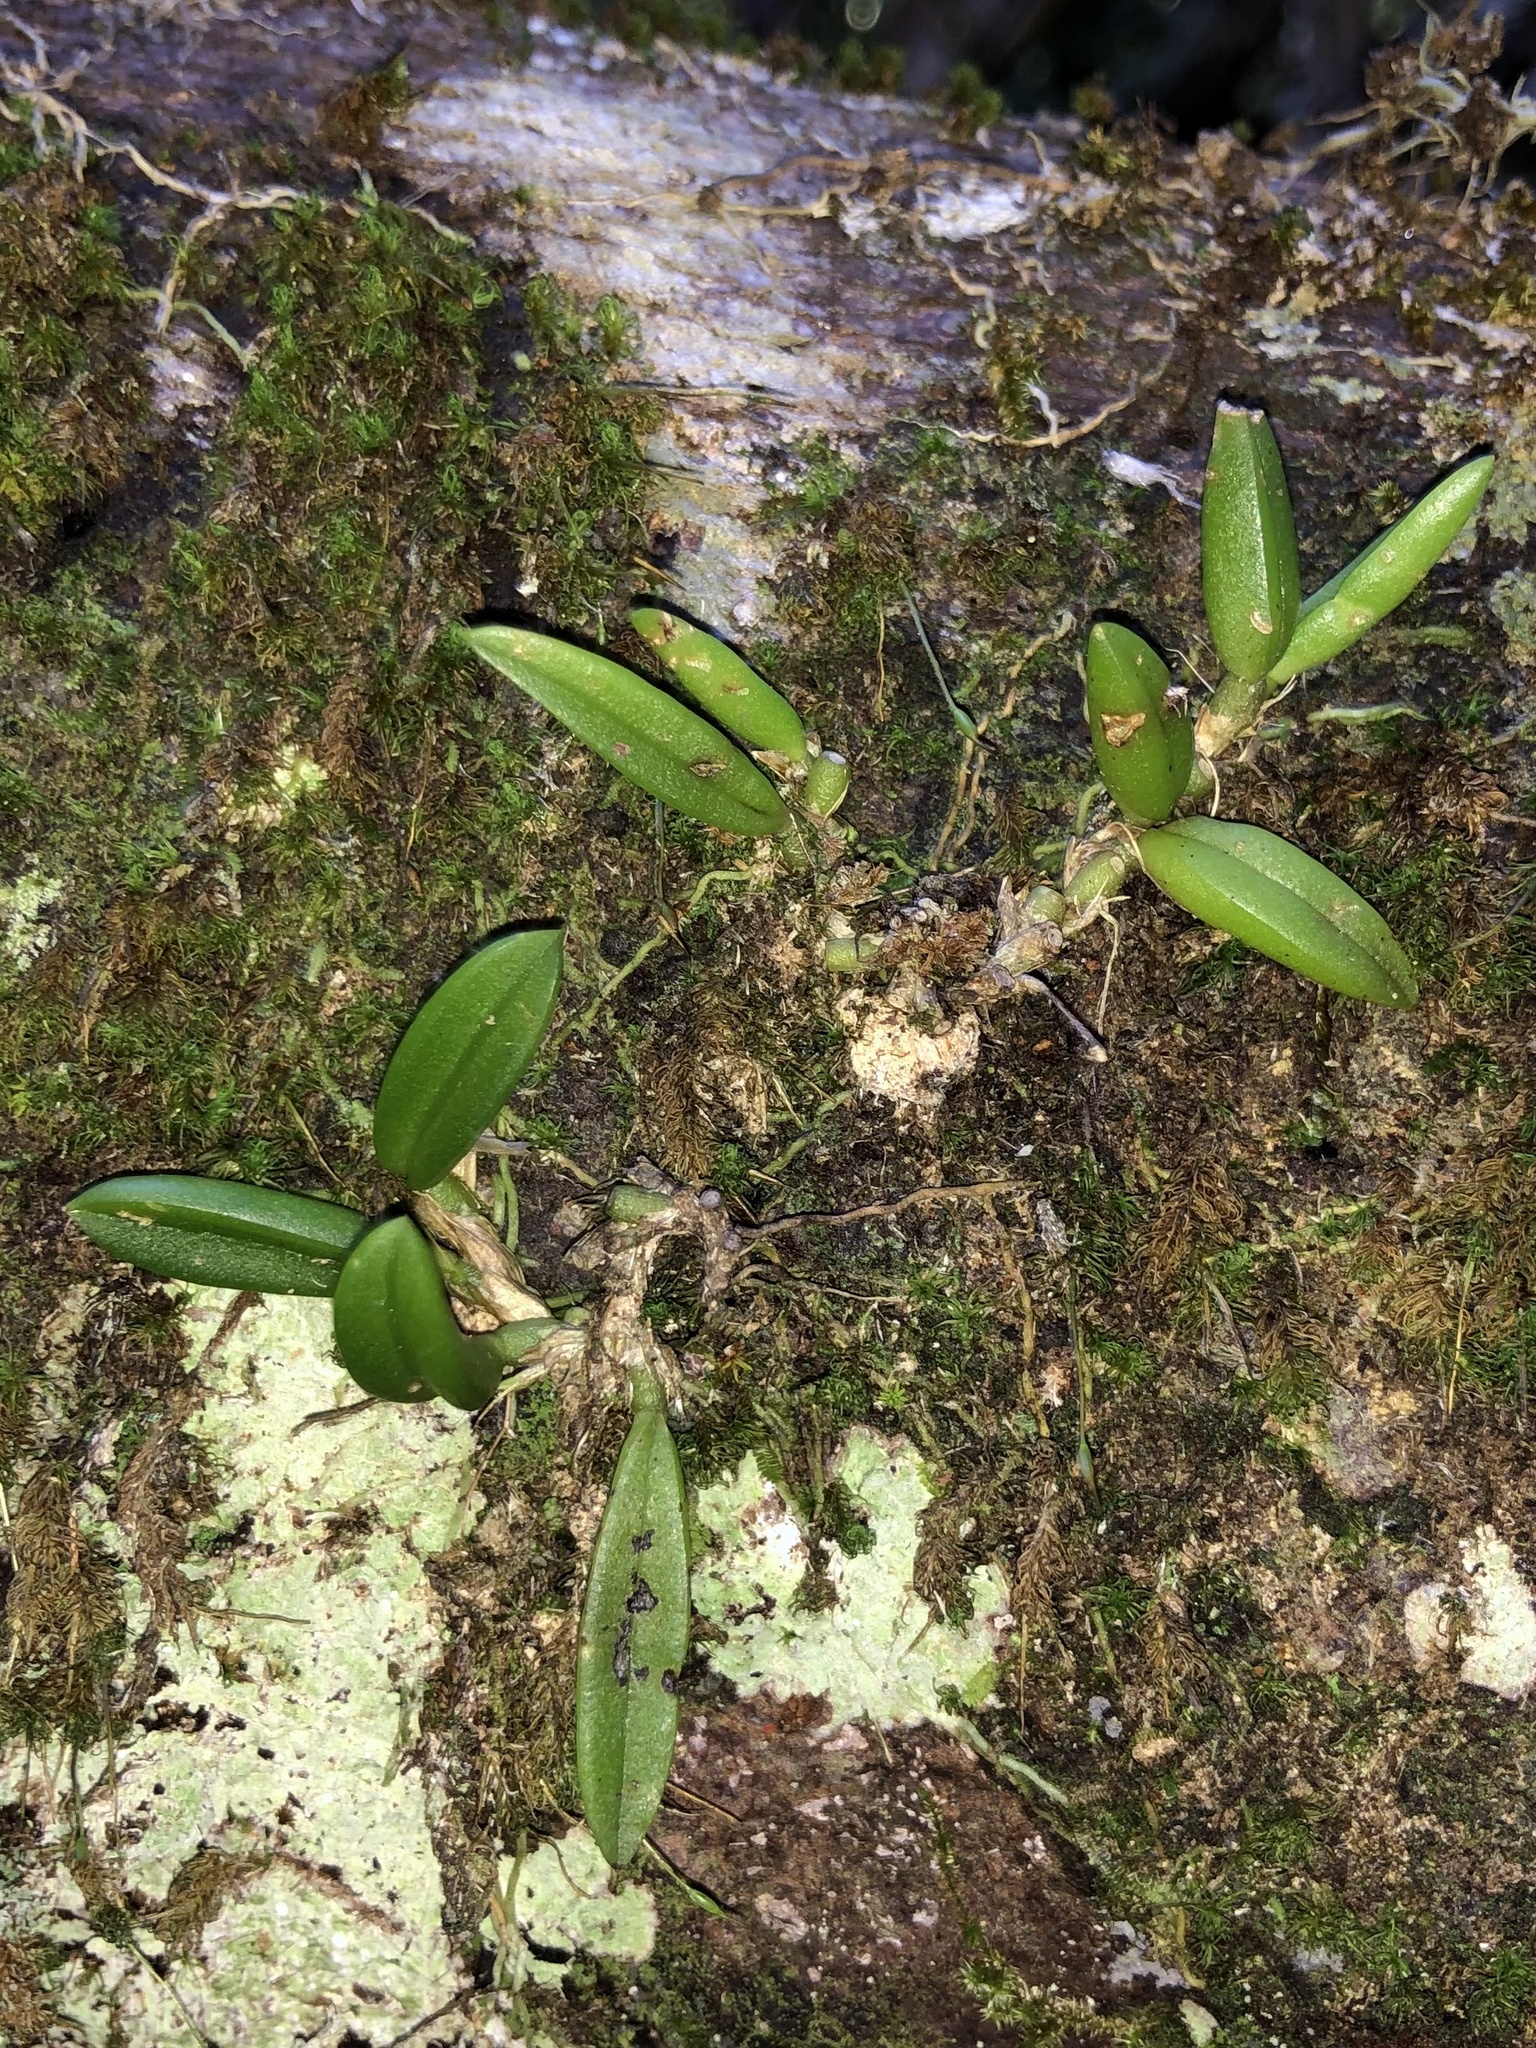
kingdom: Plantae
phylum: Tracheophyta
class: Liliopsida
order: Asparagales
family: Orchidaceae
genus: Bulbophyllum
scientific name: Bulbophyllum shepherdii
